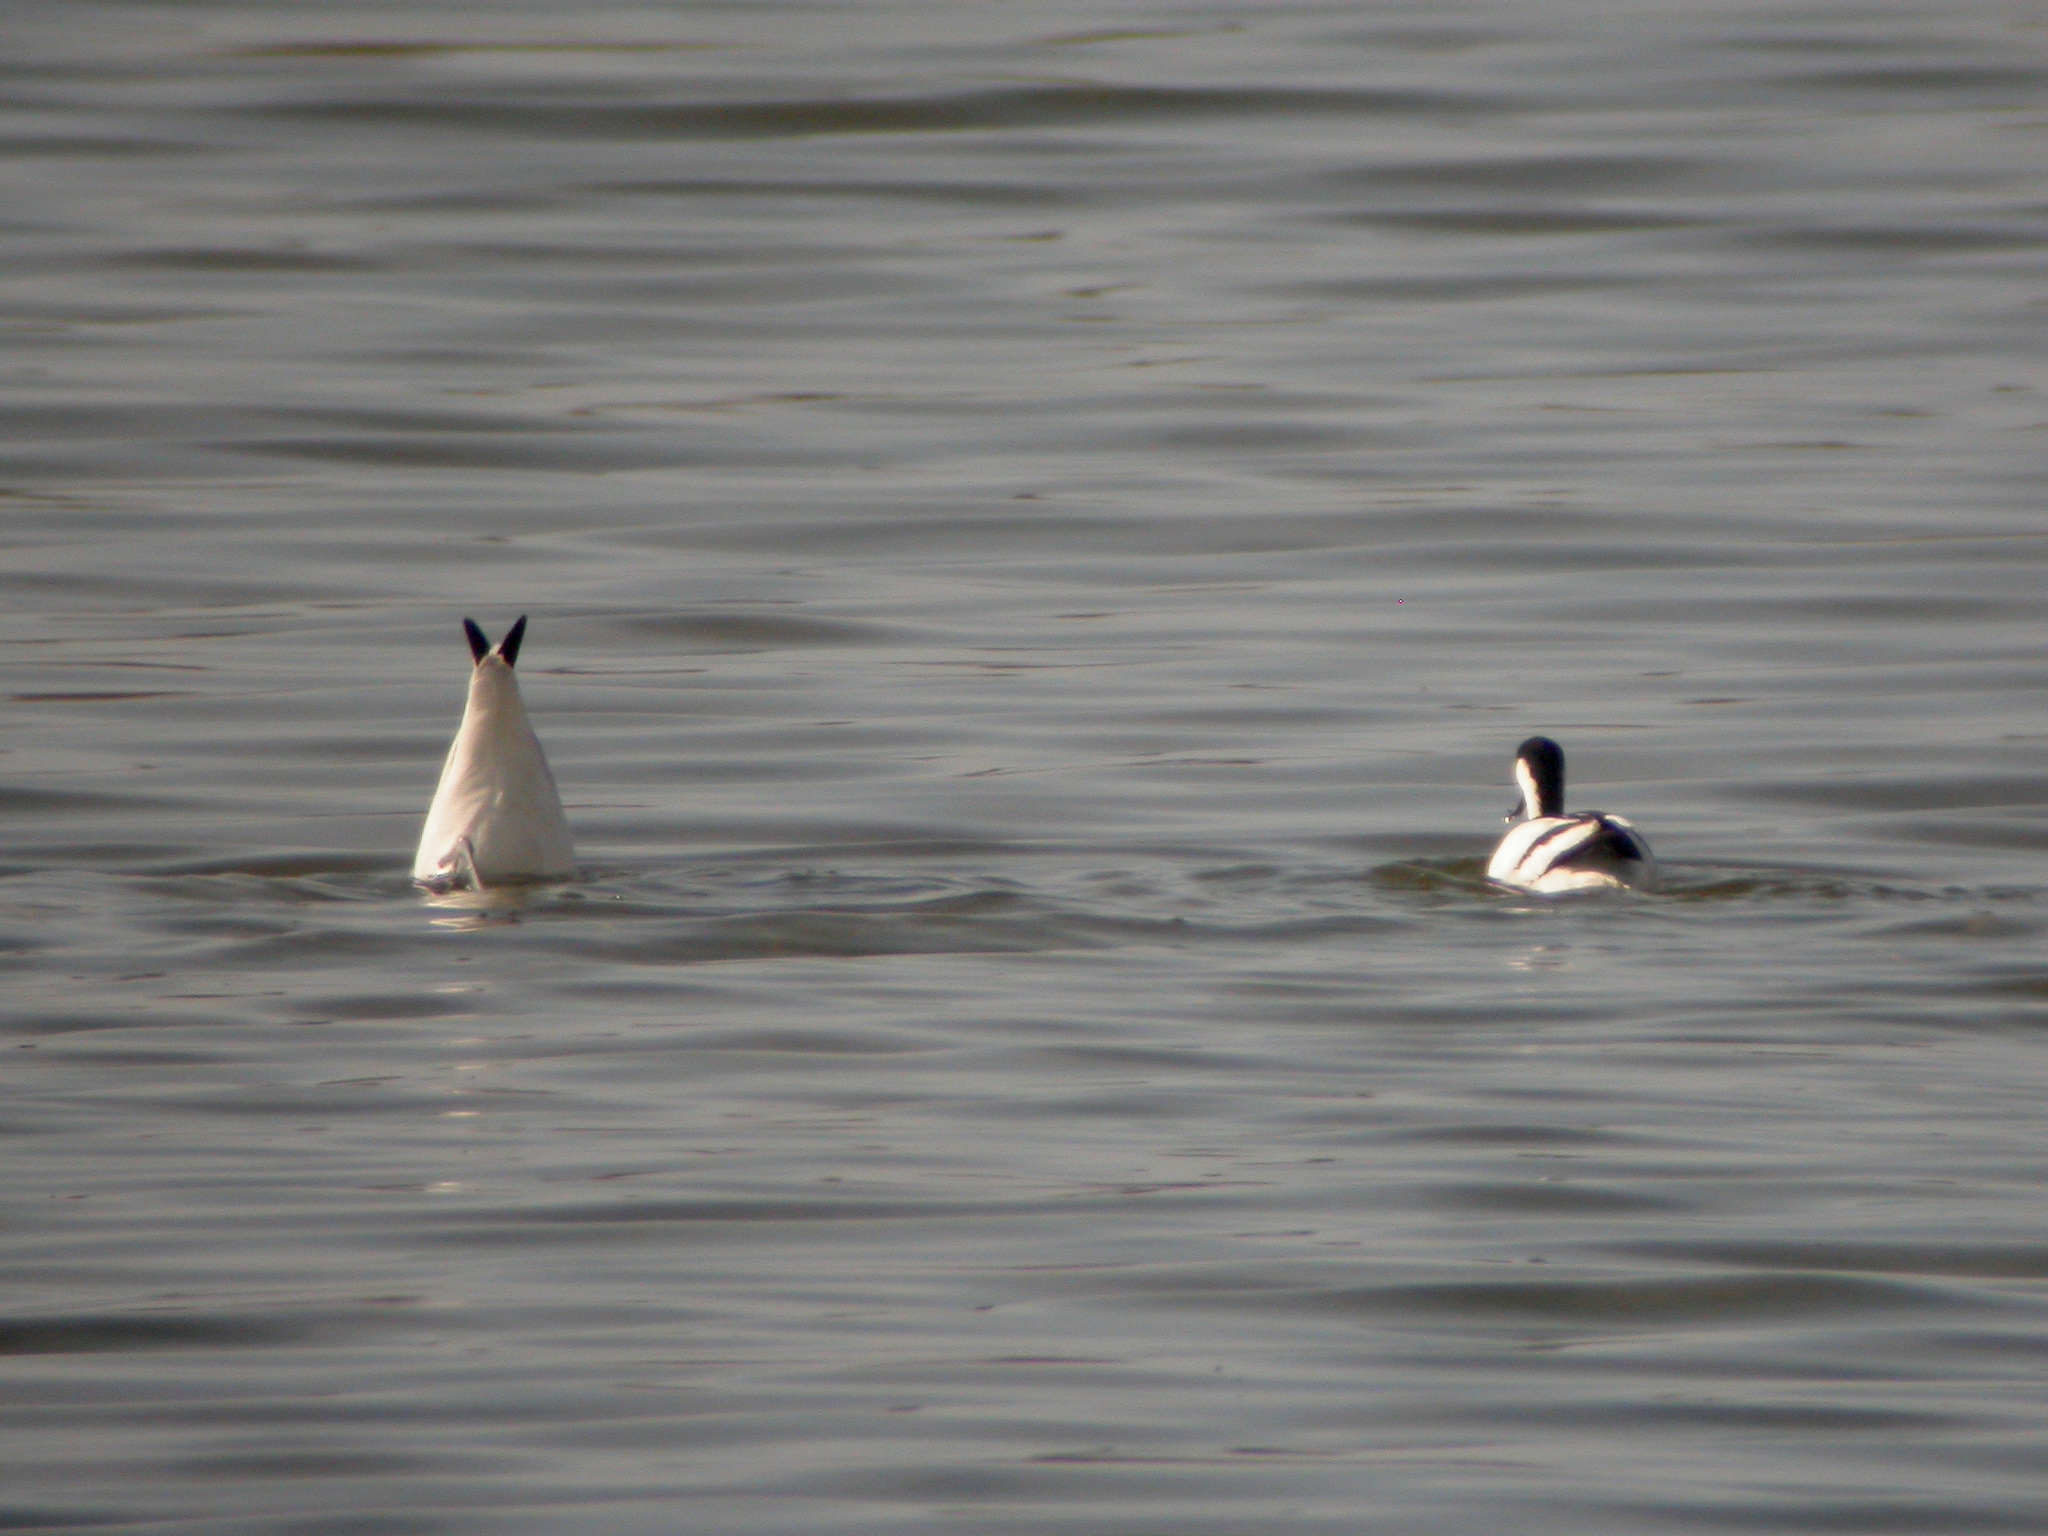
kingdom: Animalia
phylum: Chordata
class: Aves
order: Charadriiformes
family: Recurvirostridae
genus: Recurvirostra
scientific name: Recurvirostra avosetta
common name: Pied avocet
